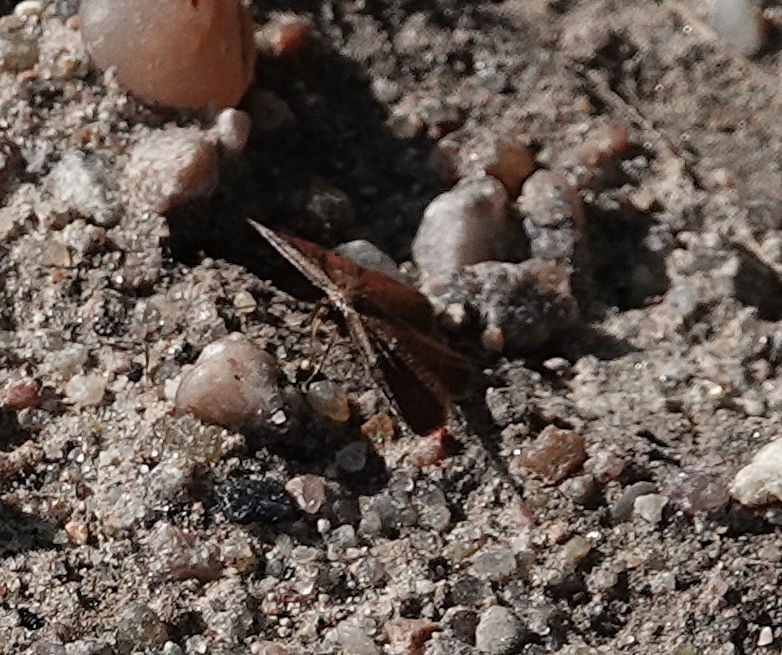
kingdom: Animalia
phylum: Arthropoda
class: Insecta
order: Lepidoptera
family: Geometridae
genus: Leptostales
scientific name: Leptostales ferruminaria
